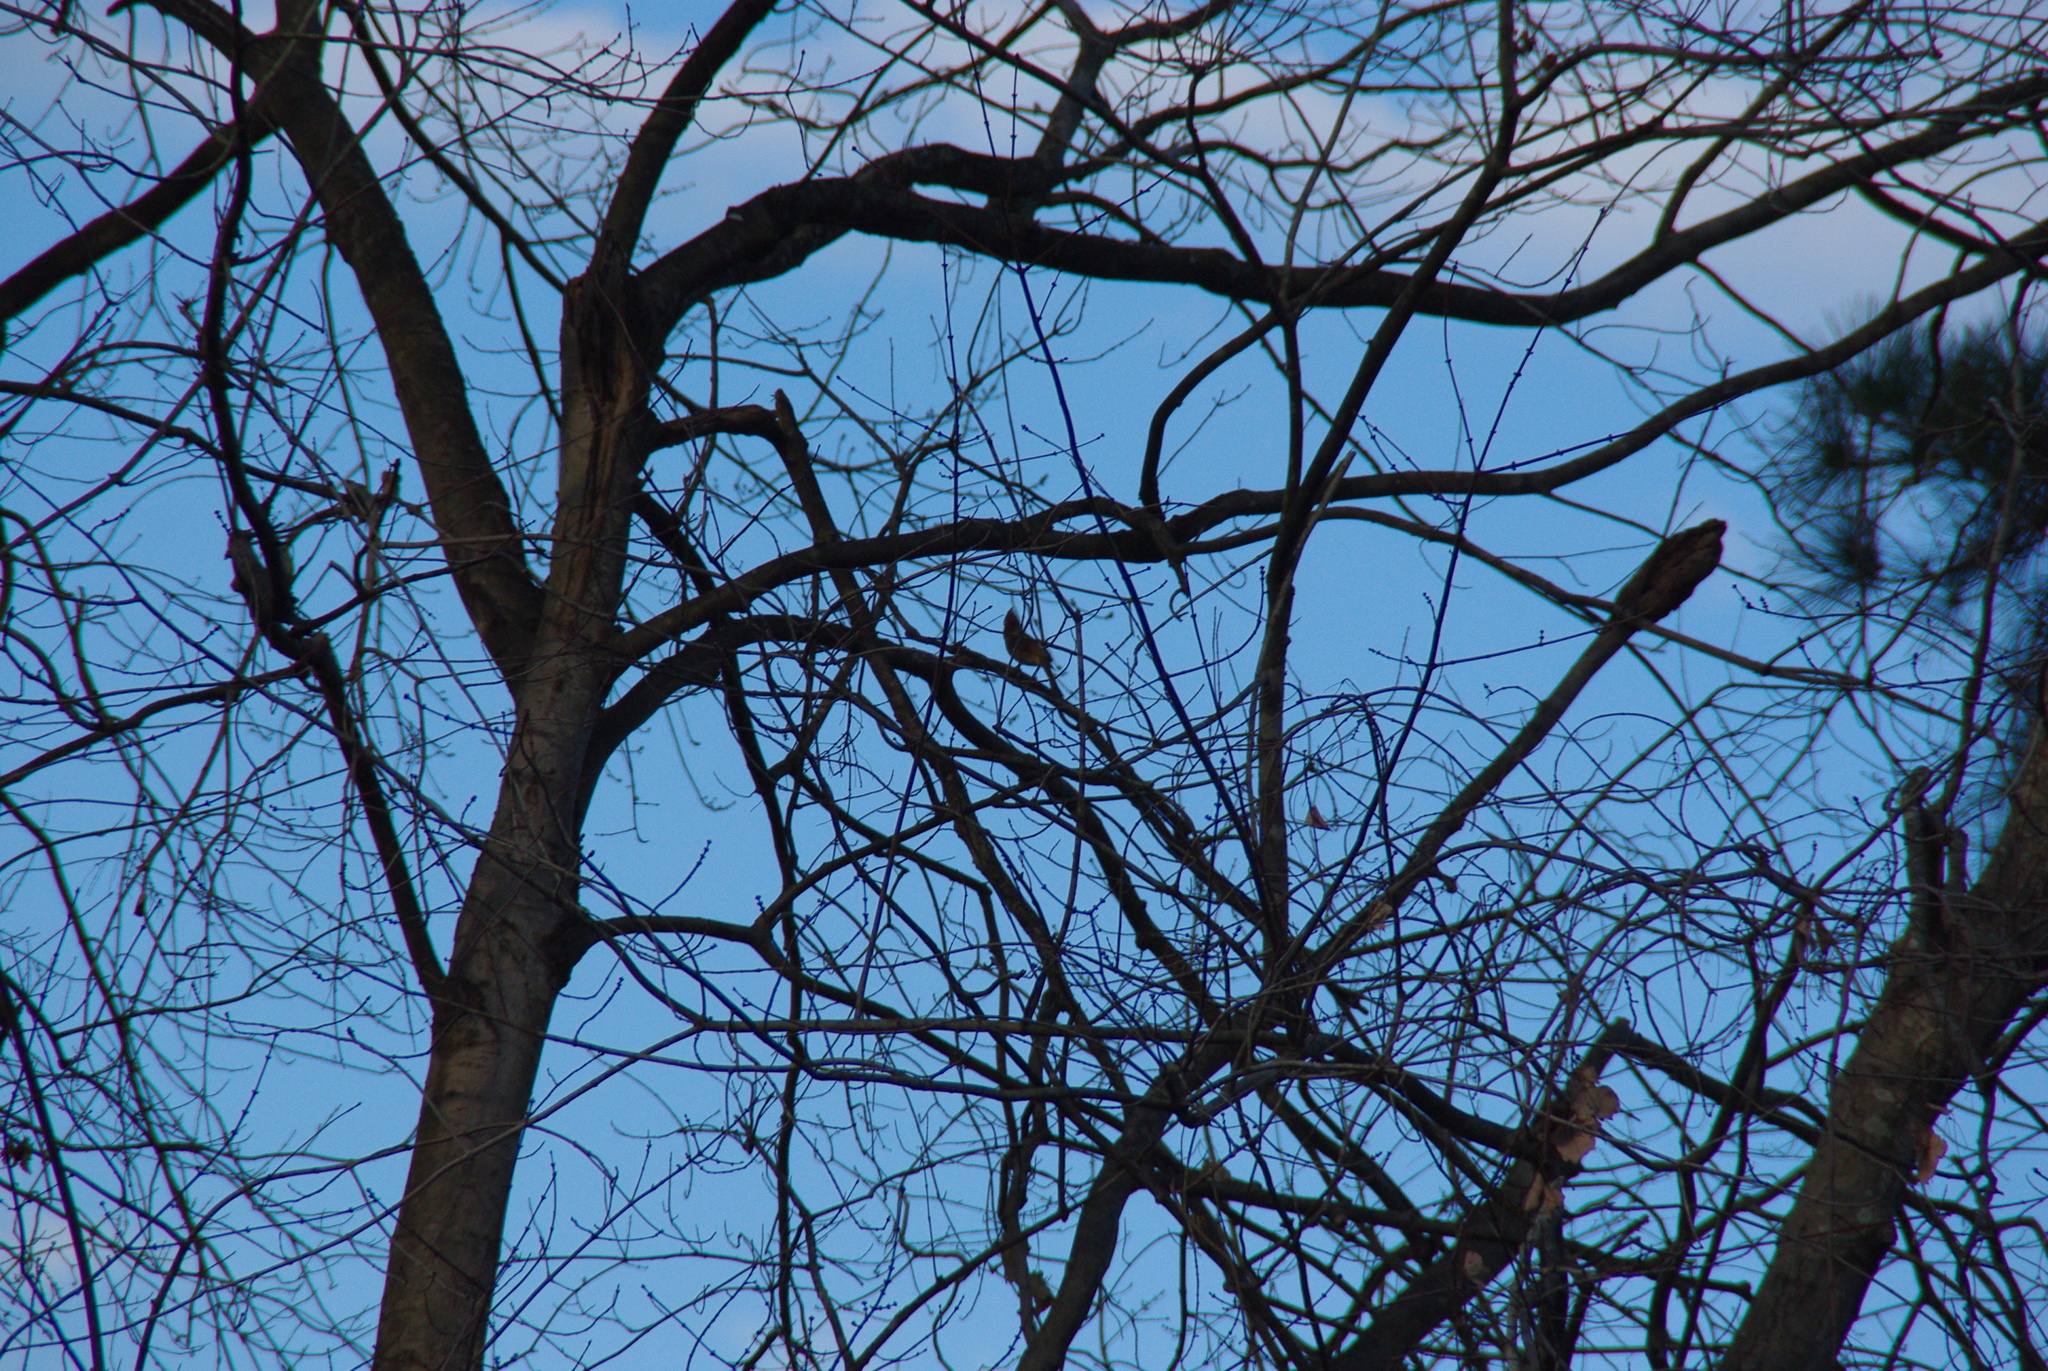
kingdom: Animalia
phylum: Chordata
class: Aves
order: Passeriformes
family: Cardinalidae
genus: Cardinalis
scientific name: Cardinalis cardinalis
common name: Northern cardinal
